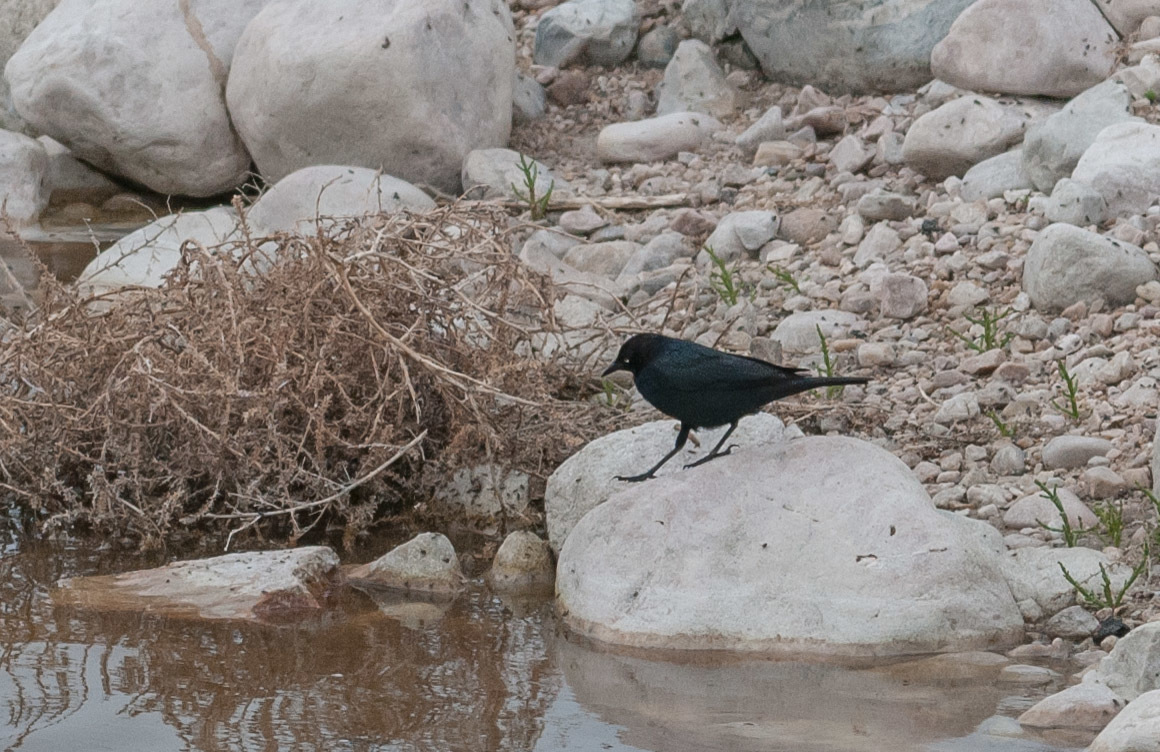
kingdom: Animalia
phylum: Chordata
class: Aves
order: Passeriformes
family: Icteridae
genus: Euphagus
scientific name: Euphagus cyanocephalus
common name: Brewer's blackbird
